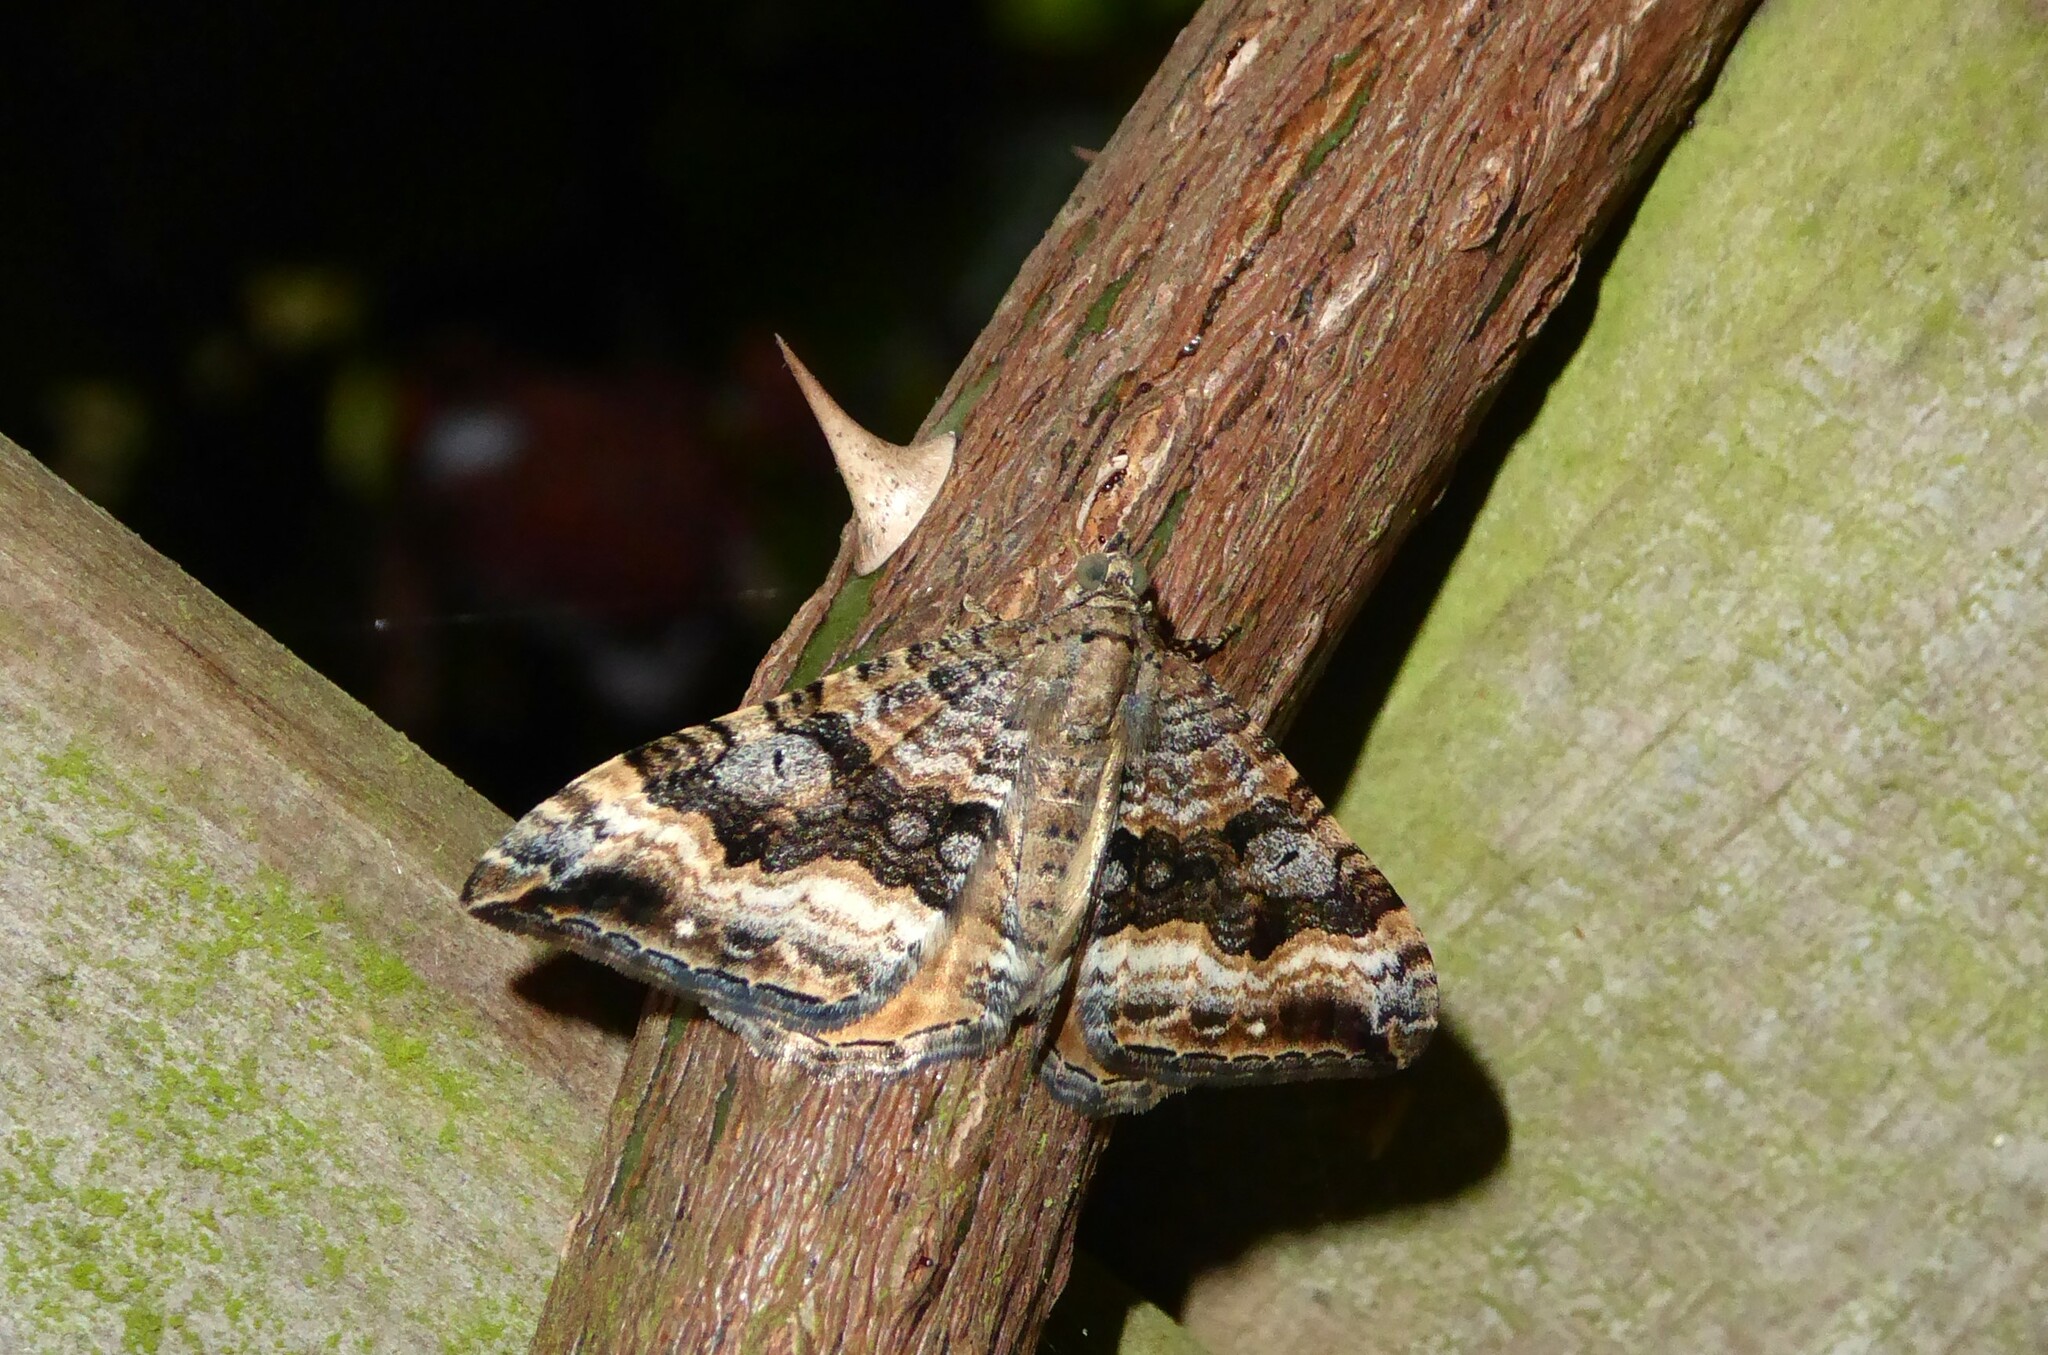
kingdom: Animalia
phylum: Arthropoda
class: Insecta
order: Lepidoptera
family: Geometridae
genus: Hydriomena
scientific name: Hydriomena deltoidata
